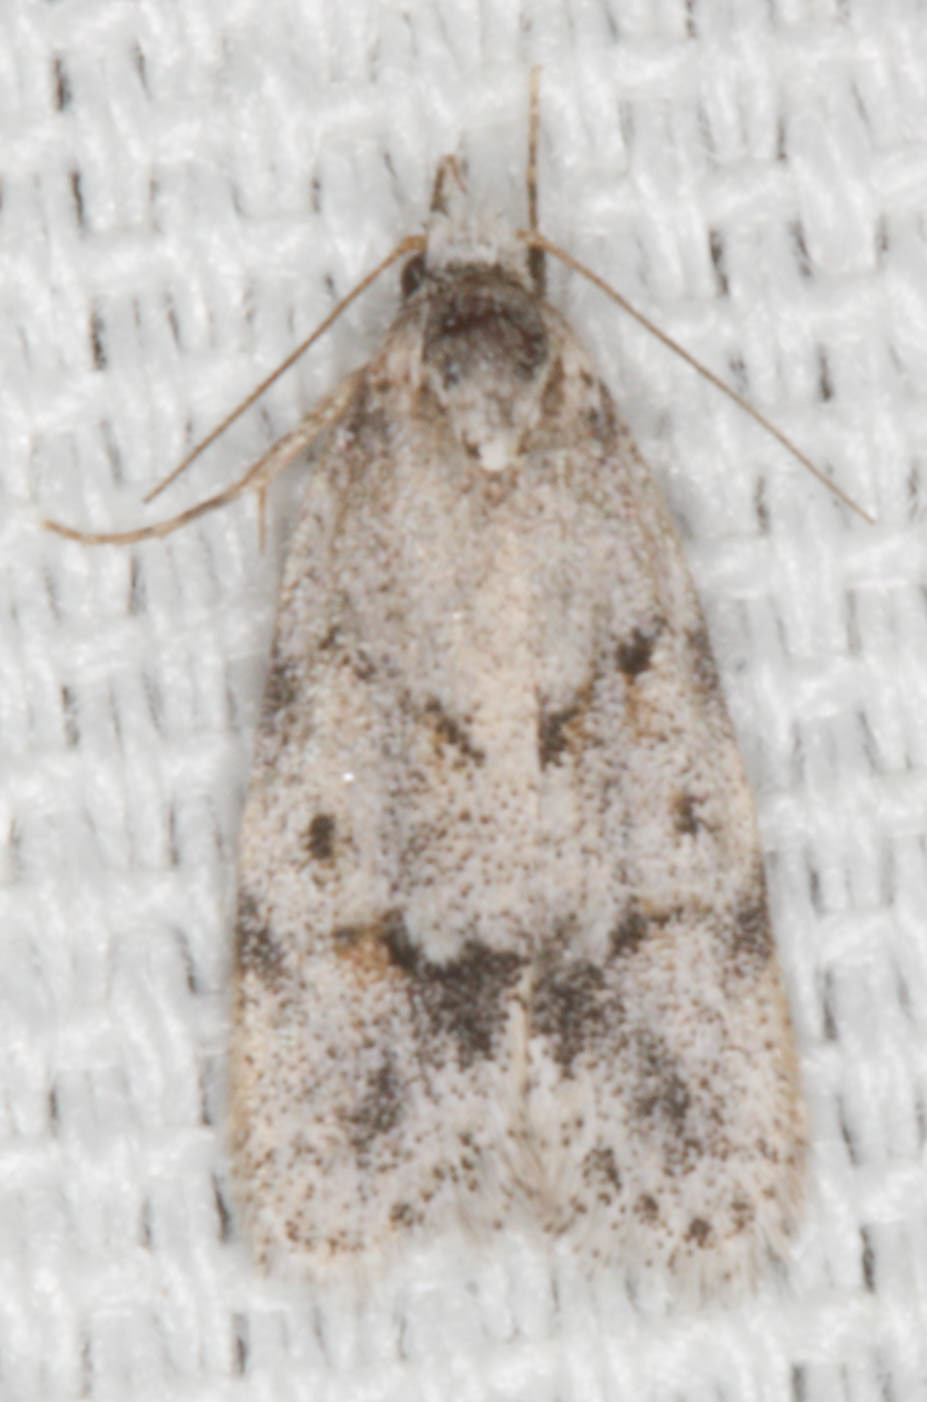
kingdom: Animalia
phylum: Arthropoda
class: Insecta
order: Lepidoptera
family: Autostichidae
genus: Symmoca
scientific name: Symmoca signatella
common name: Dockland obscure
